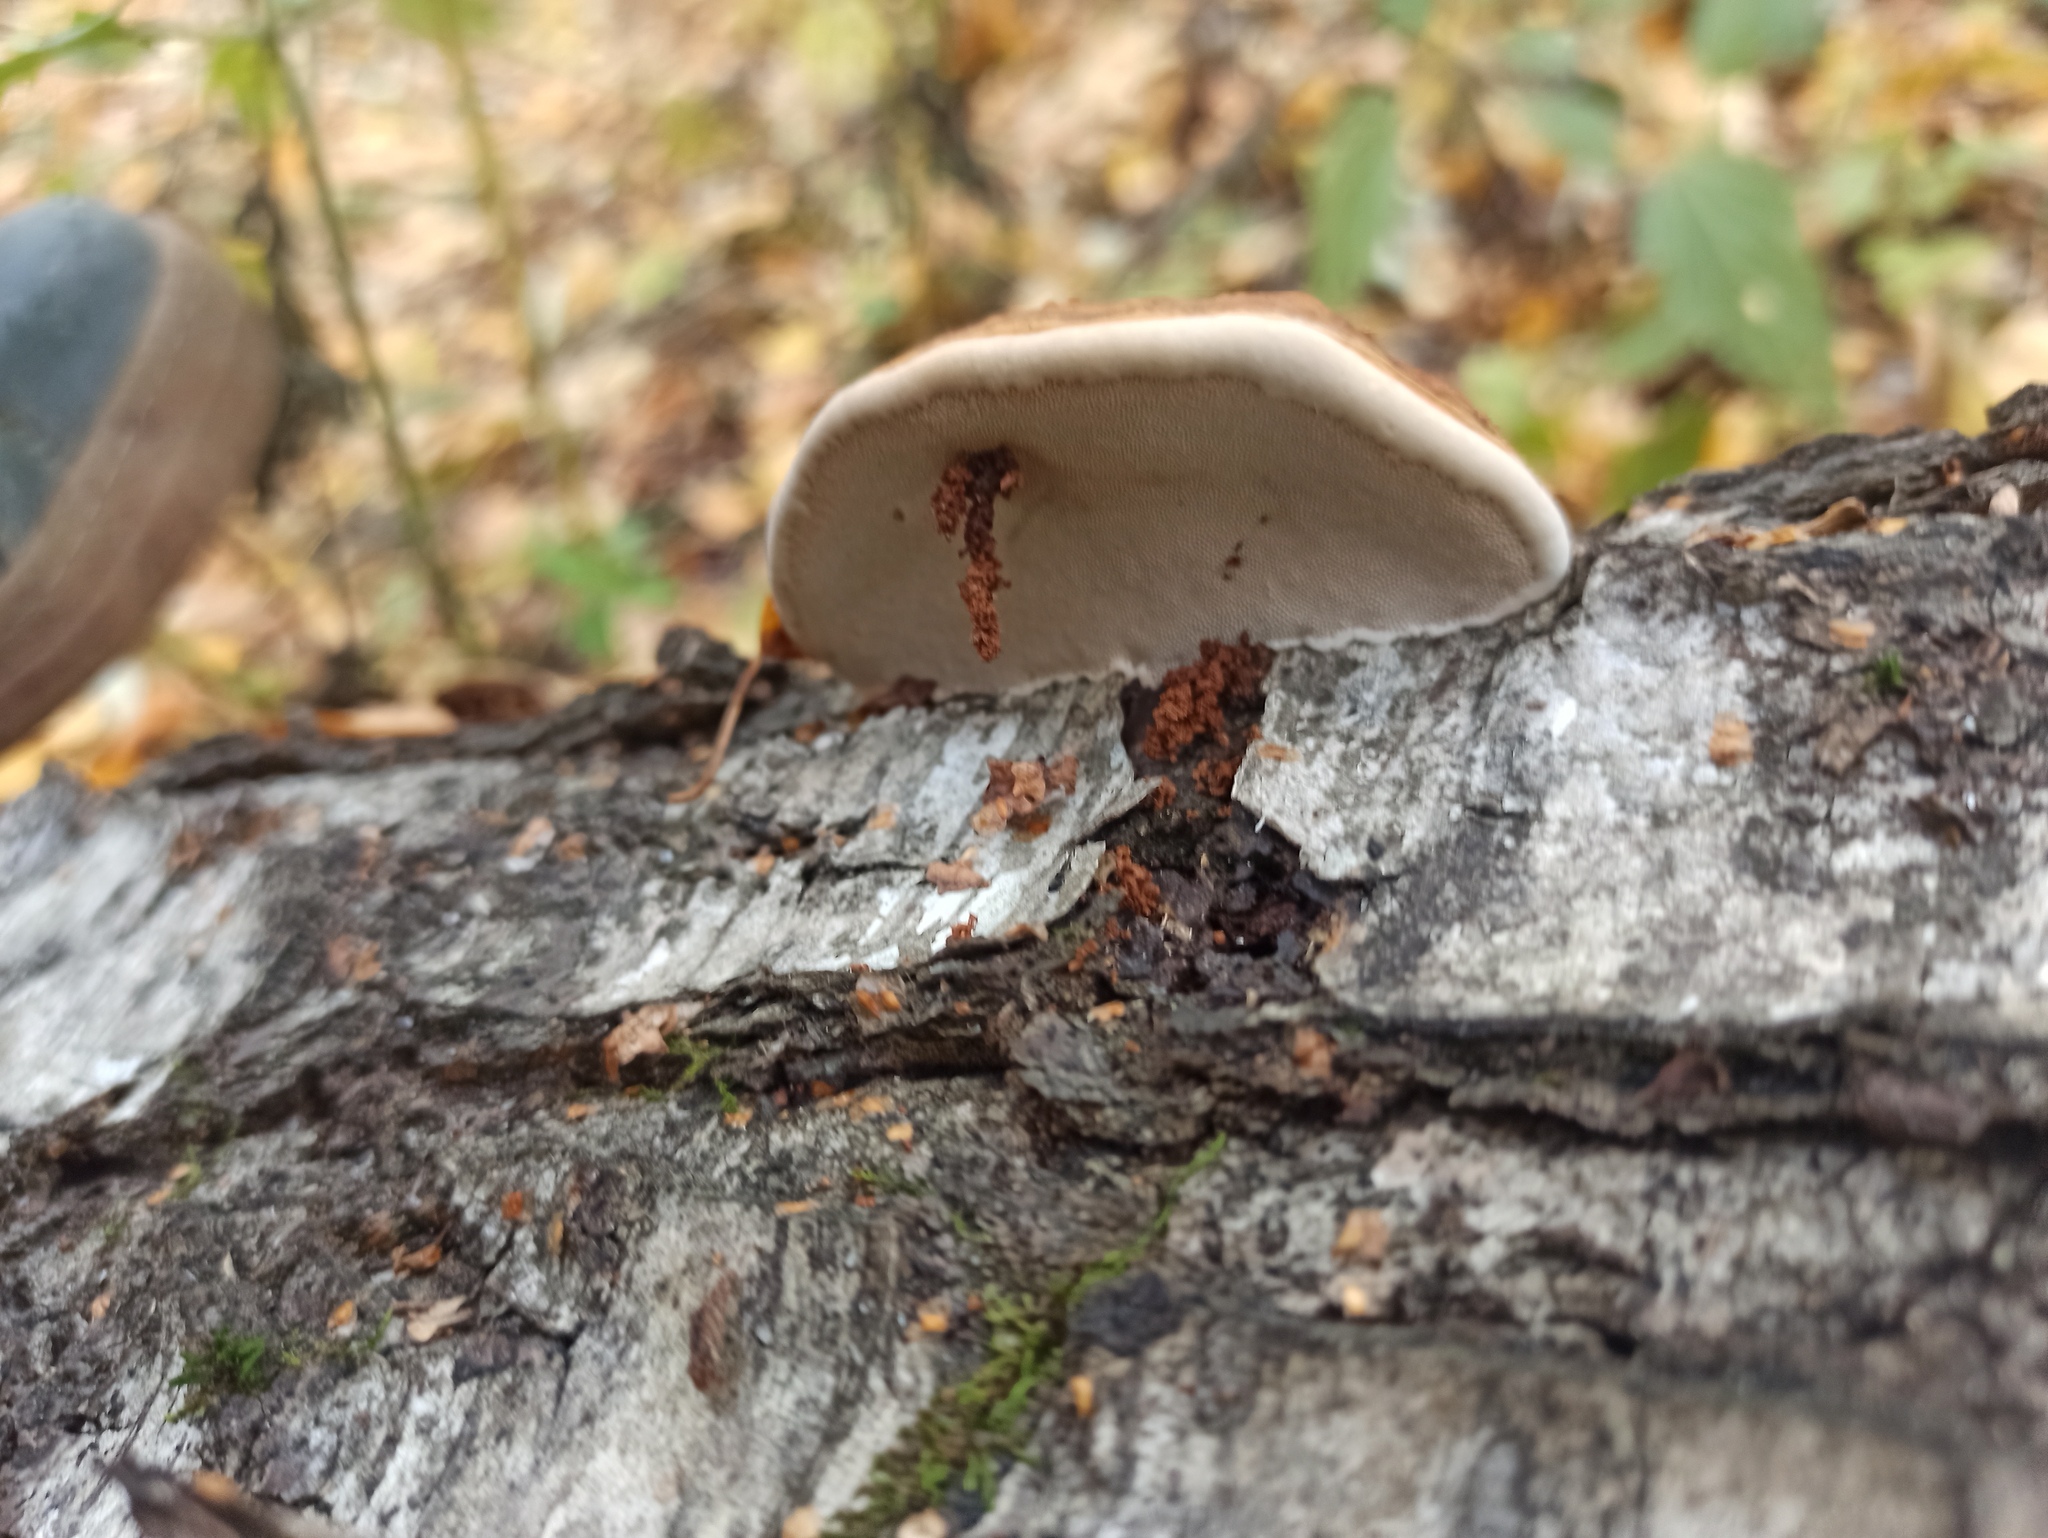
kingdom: Fungi
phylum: Basidiomycota
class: Agaricomycetes
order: Polyporales
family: Polyporaceae
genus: Fomes
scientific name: Fomes fomentarius
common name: Hoof fungus
